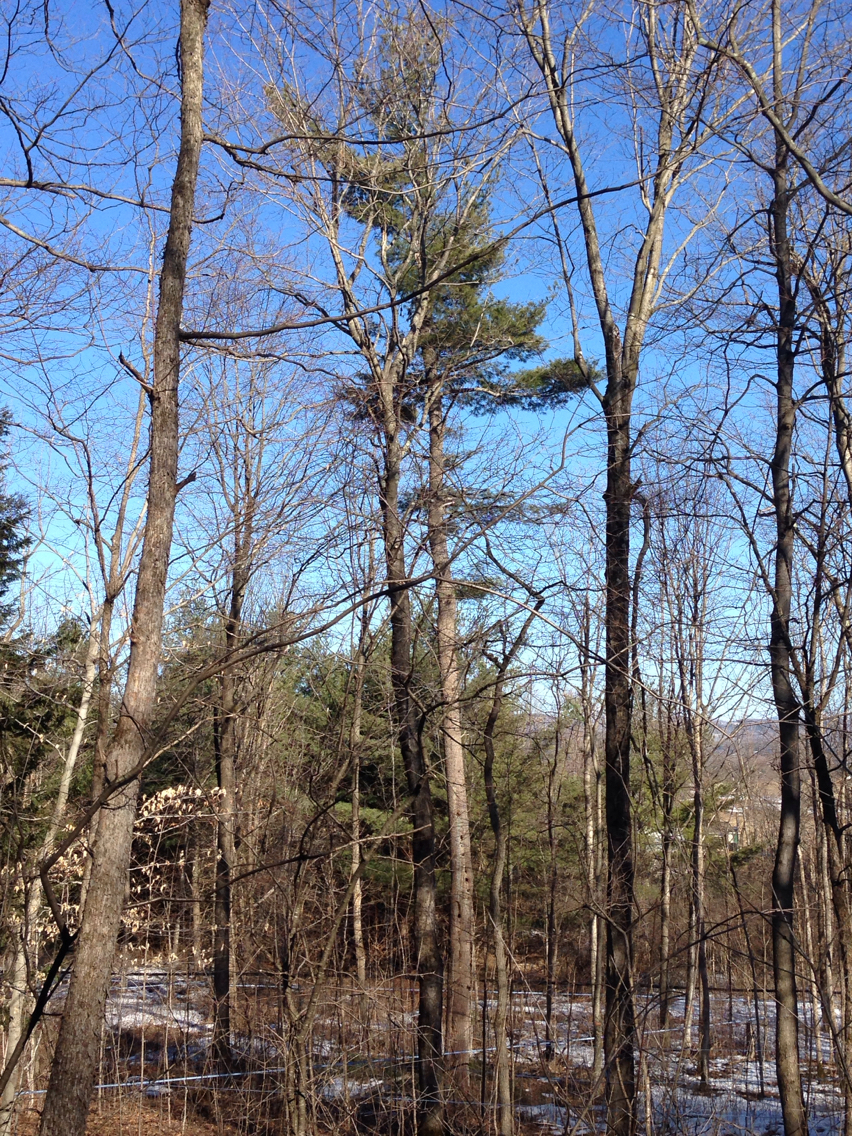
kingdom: Plantae
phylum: Tracheophyta
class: Pinopsida
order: Pinales
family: Pinaceae
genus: Pinus
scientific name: Pinus strobus
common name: Weymouth pine
